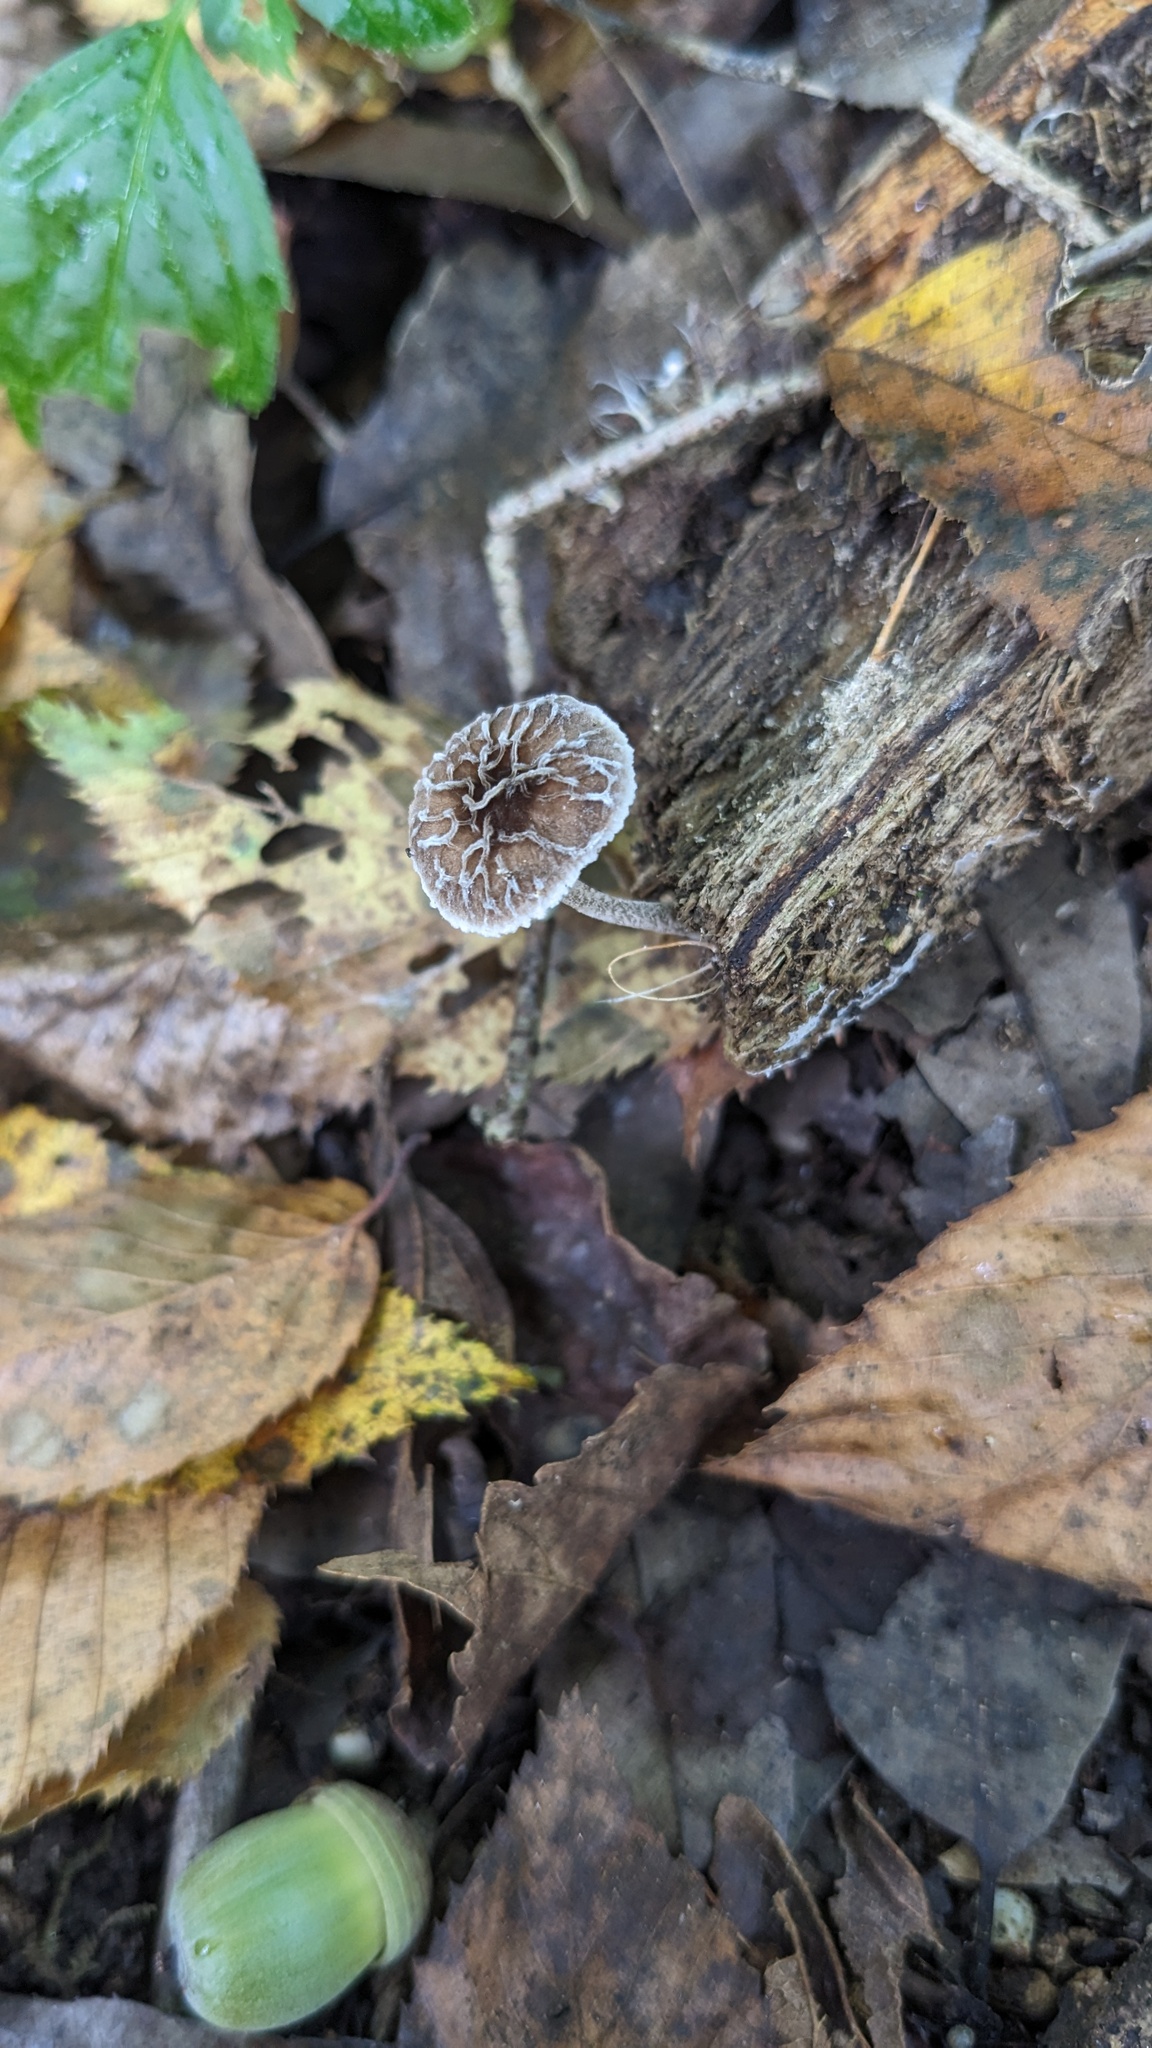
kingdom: Fungi
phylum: Basidiomycota
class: Agaricomycetes
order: Agaricales
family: Pluteaceae
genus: Pluteus
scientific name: Pluteus thomsonii
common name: Veined shield
